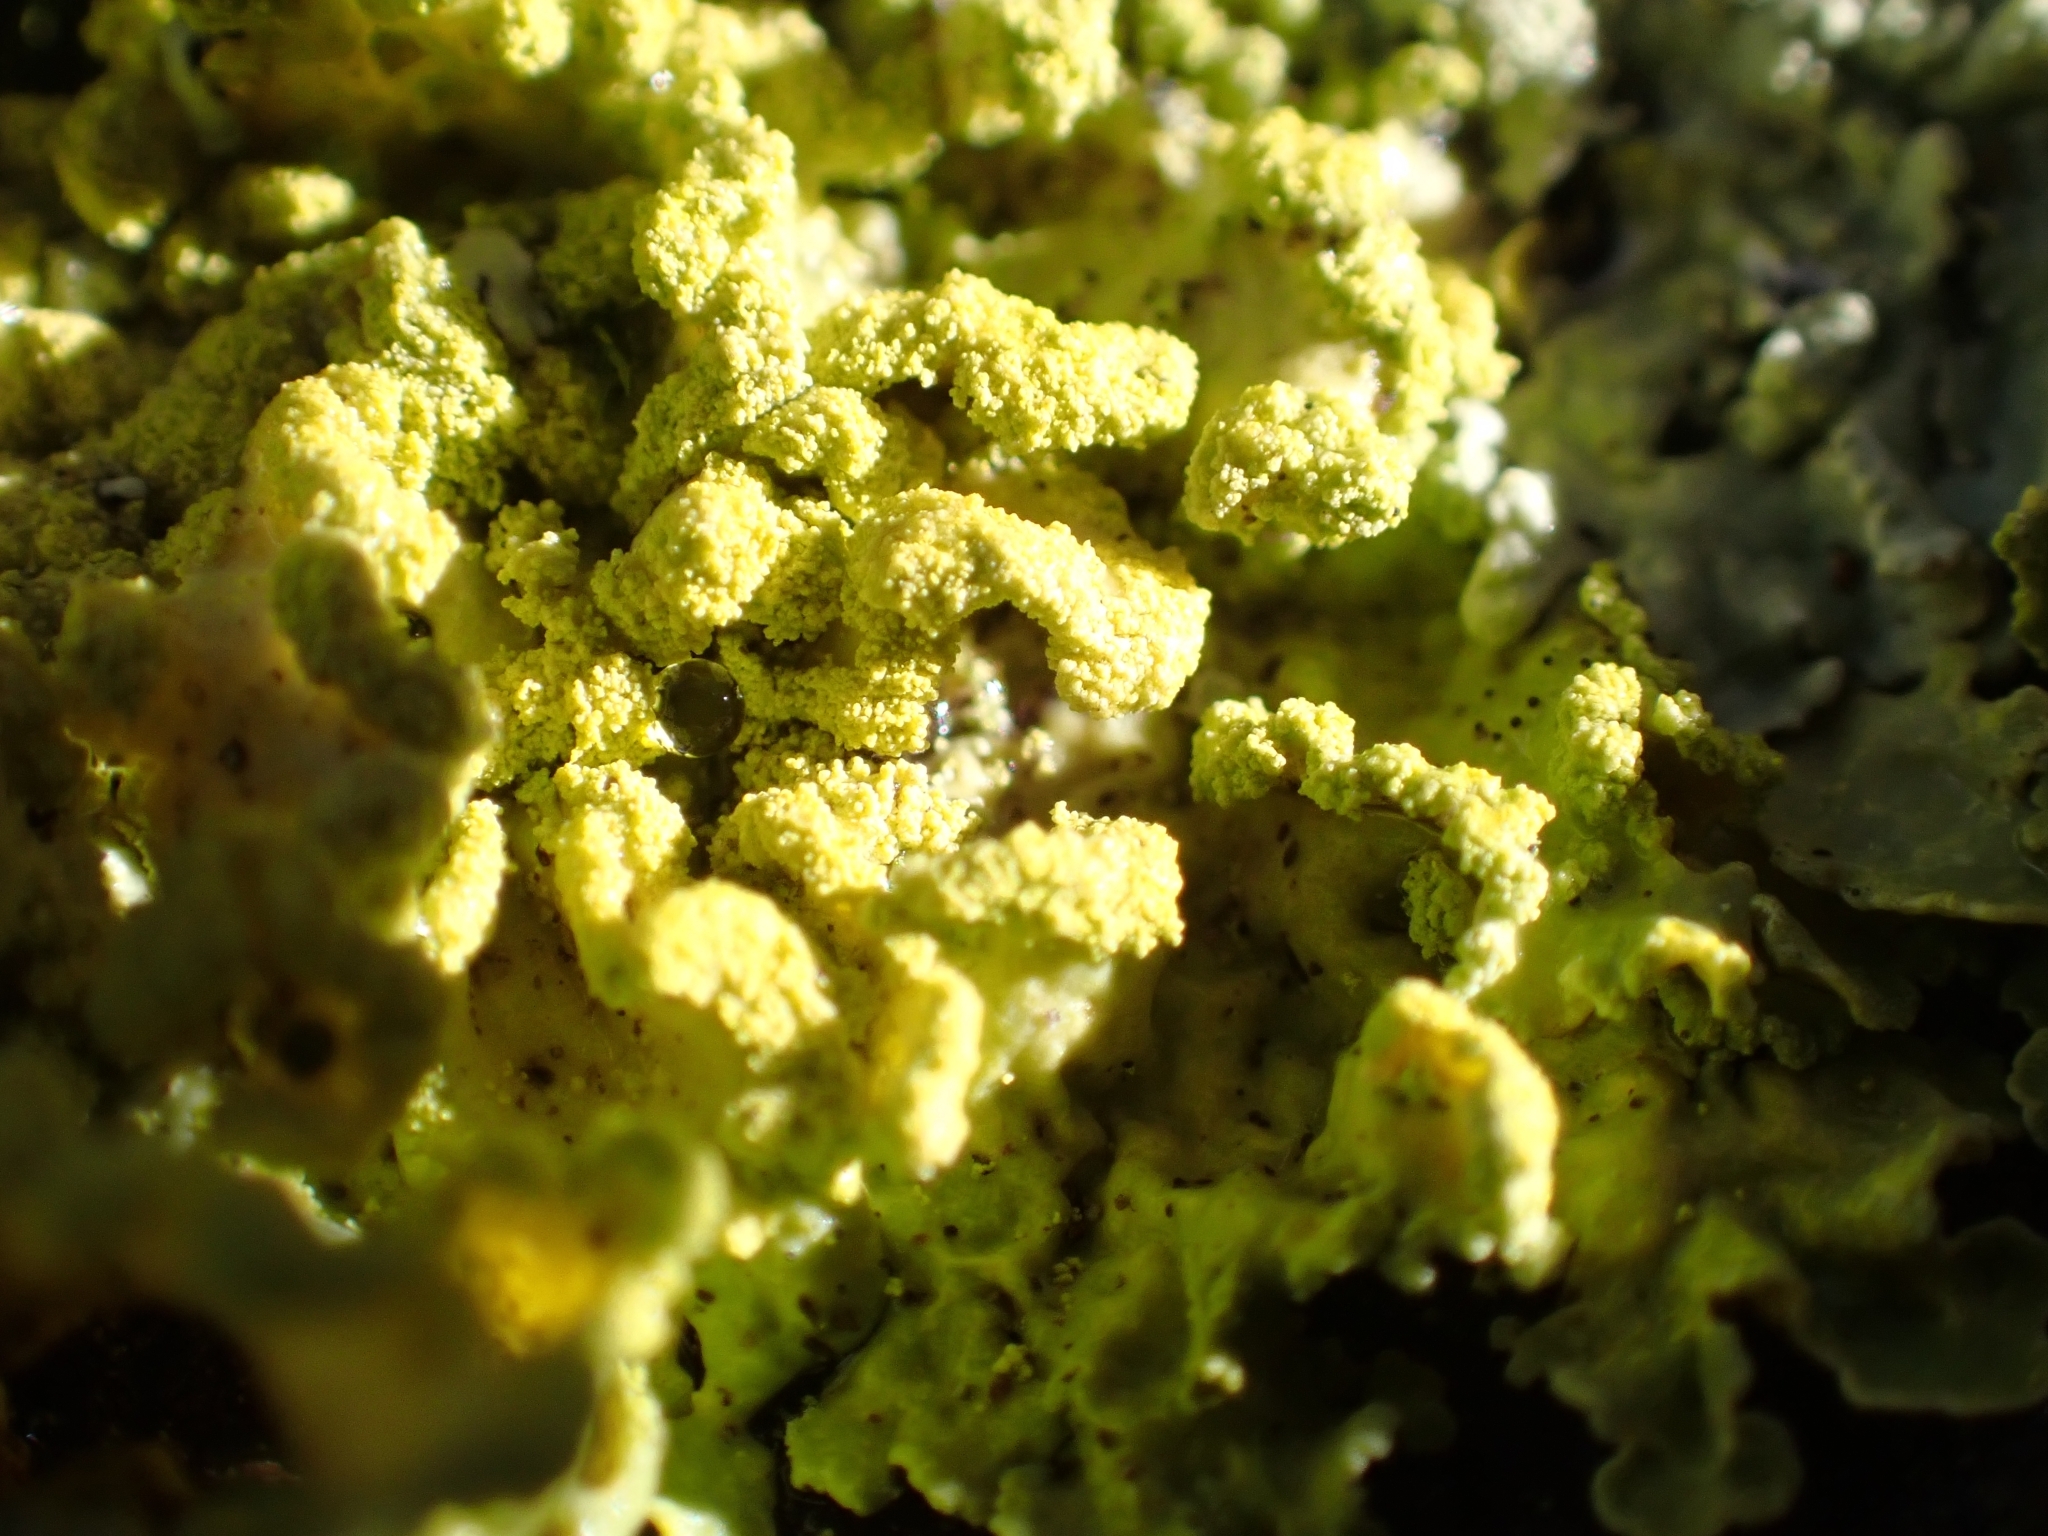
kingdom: Fungi
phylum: Ascomycota
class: Lecanoromycetes
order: Lecanorales
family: Parmeliaceae
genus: Vulpicida
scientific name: Vulpicida pinastri
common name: Powdered sunshine lichen
